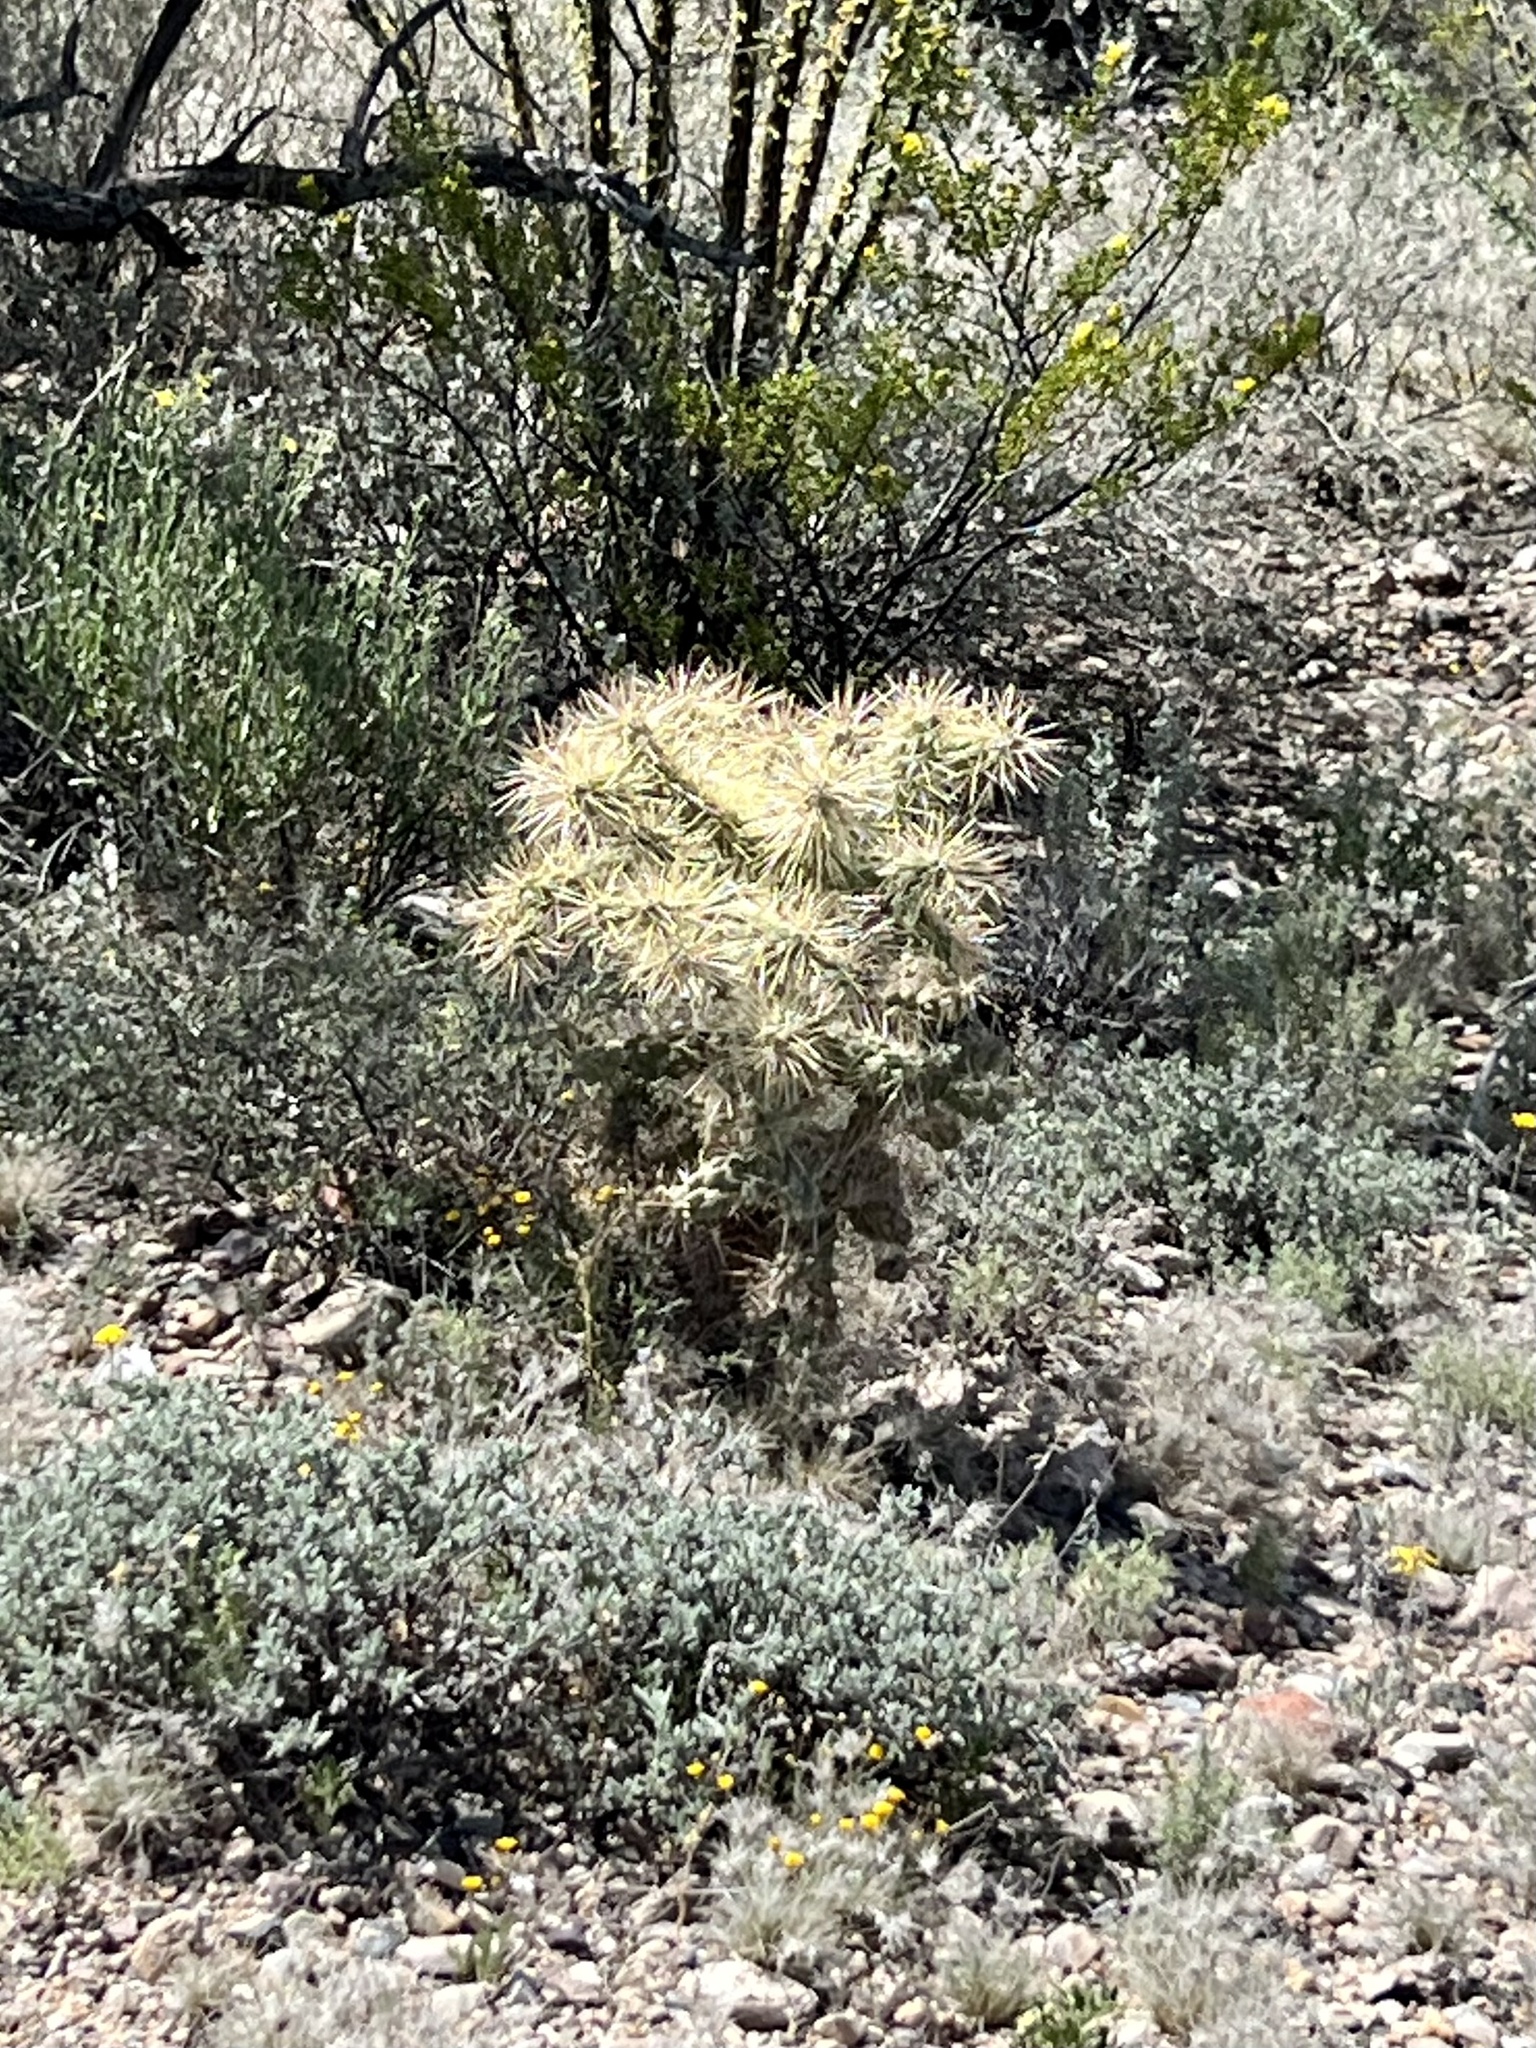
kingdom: Plantae
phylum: Tracheophyta
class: Magnoliopsida
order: Caryophyllales
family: Cactaceae
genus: Cylindropuntia
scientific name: Cylindropuntia fulgida
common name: Jumping cholla
